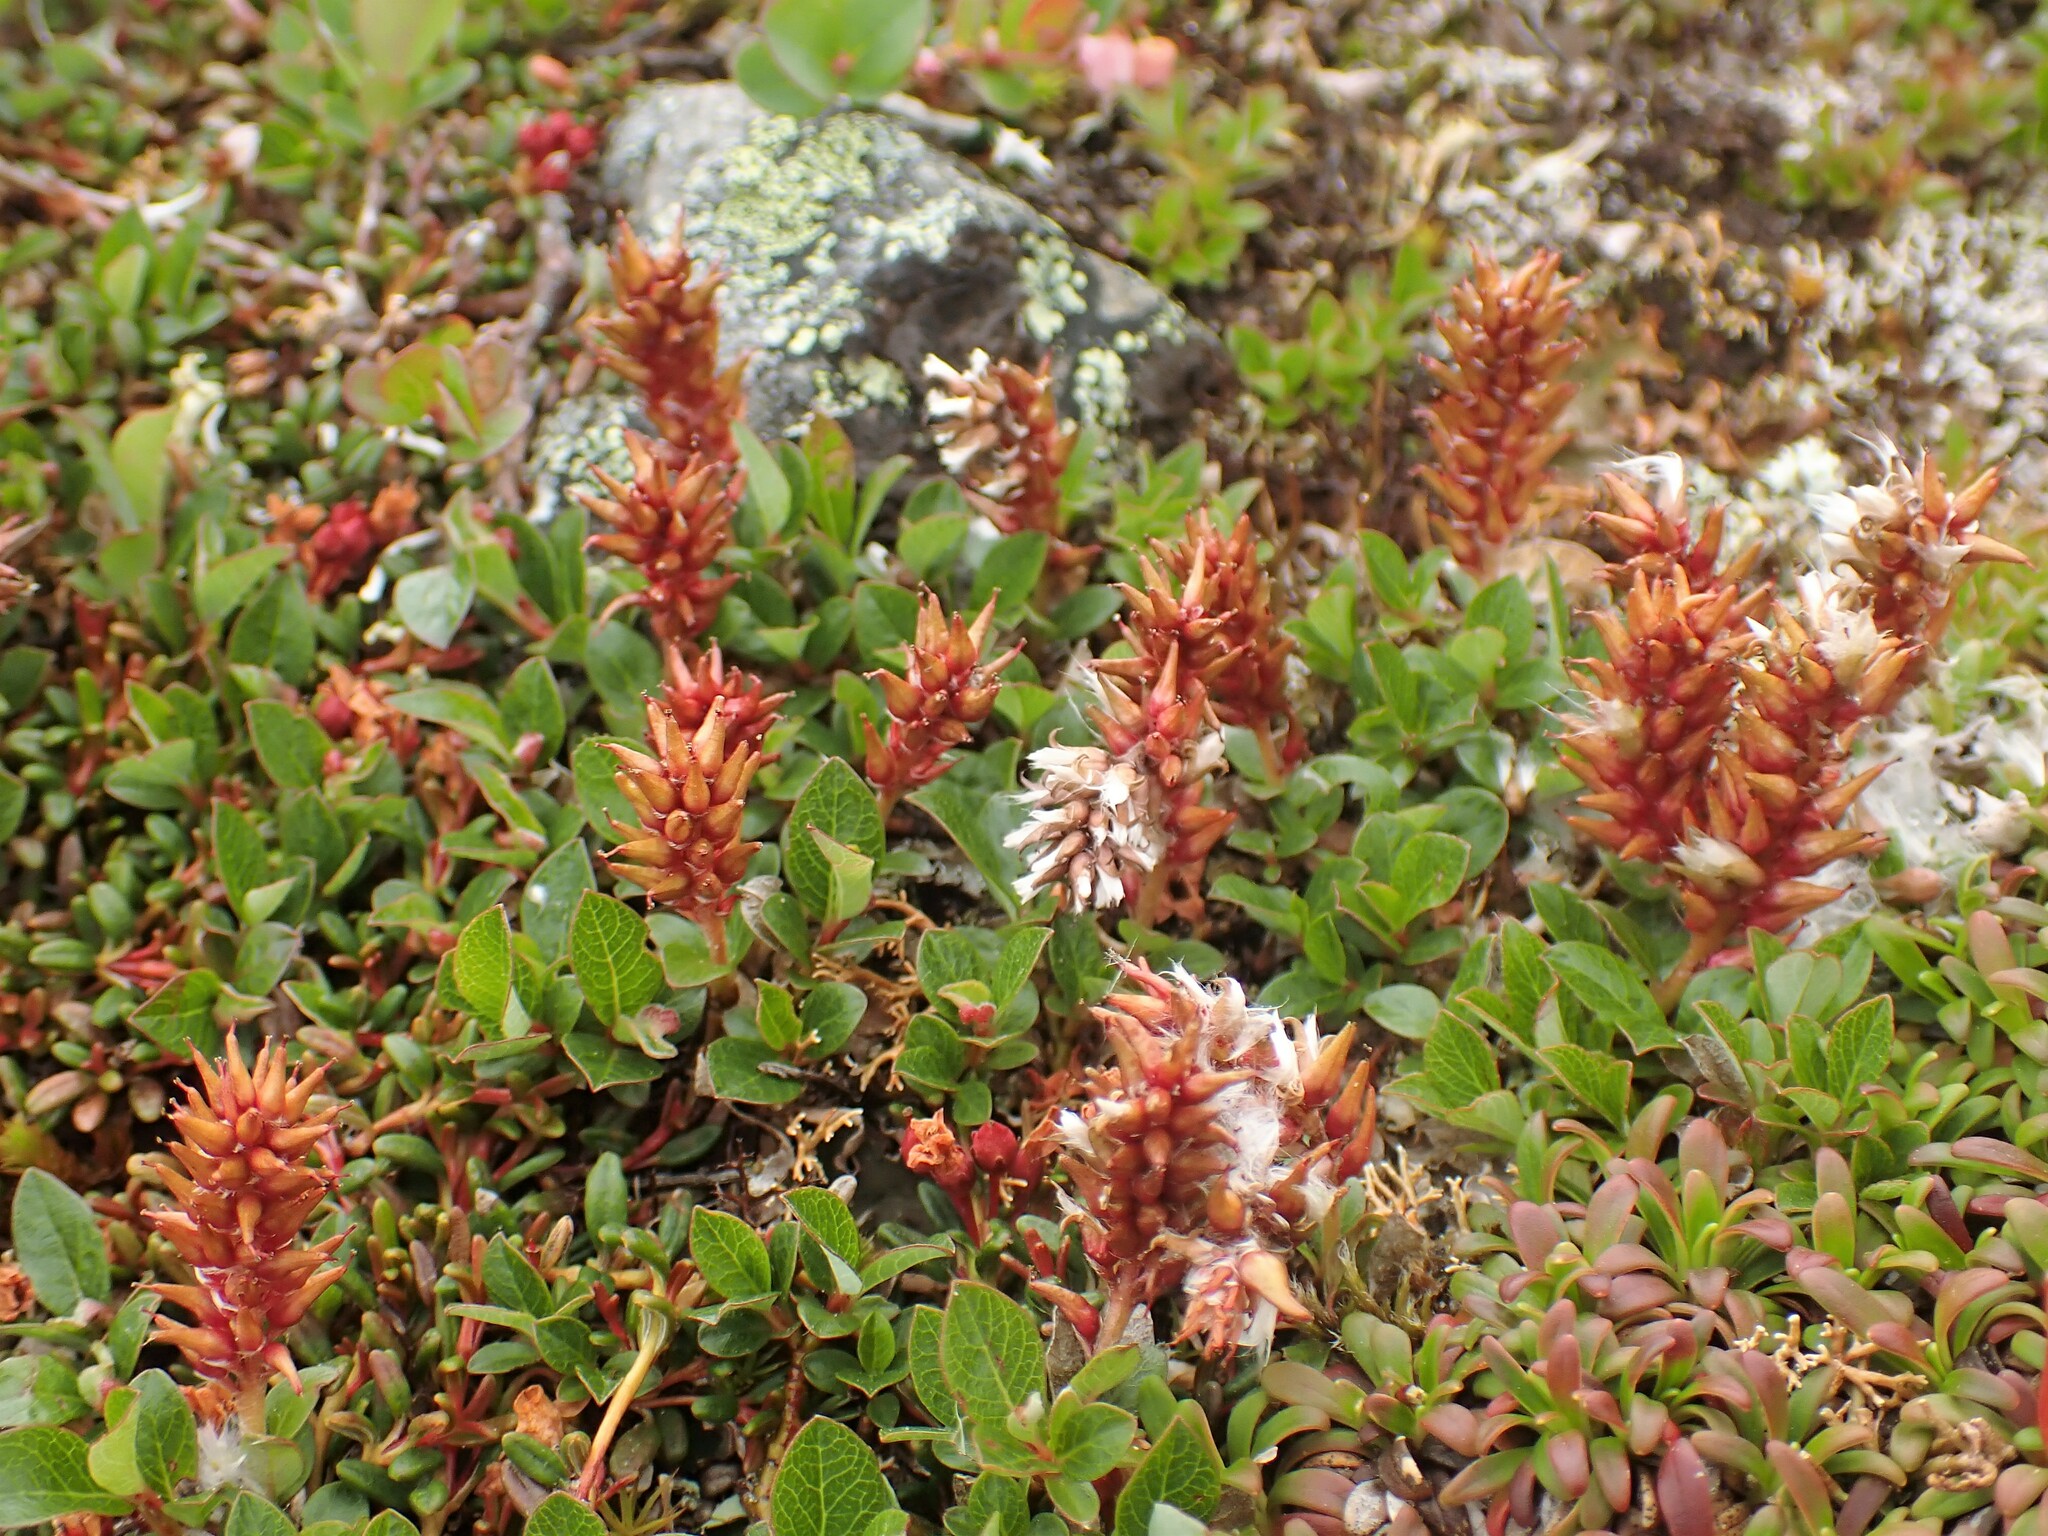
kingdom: Plantae
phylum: Tracheophyta
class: Magnoliopsida
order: Malpighiales
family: Salicaceae
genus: Salix
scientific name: Salix uva-ursi
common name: Bearberry willow
